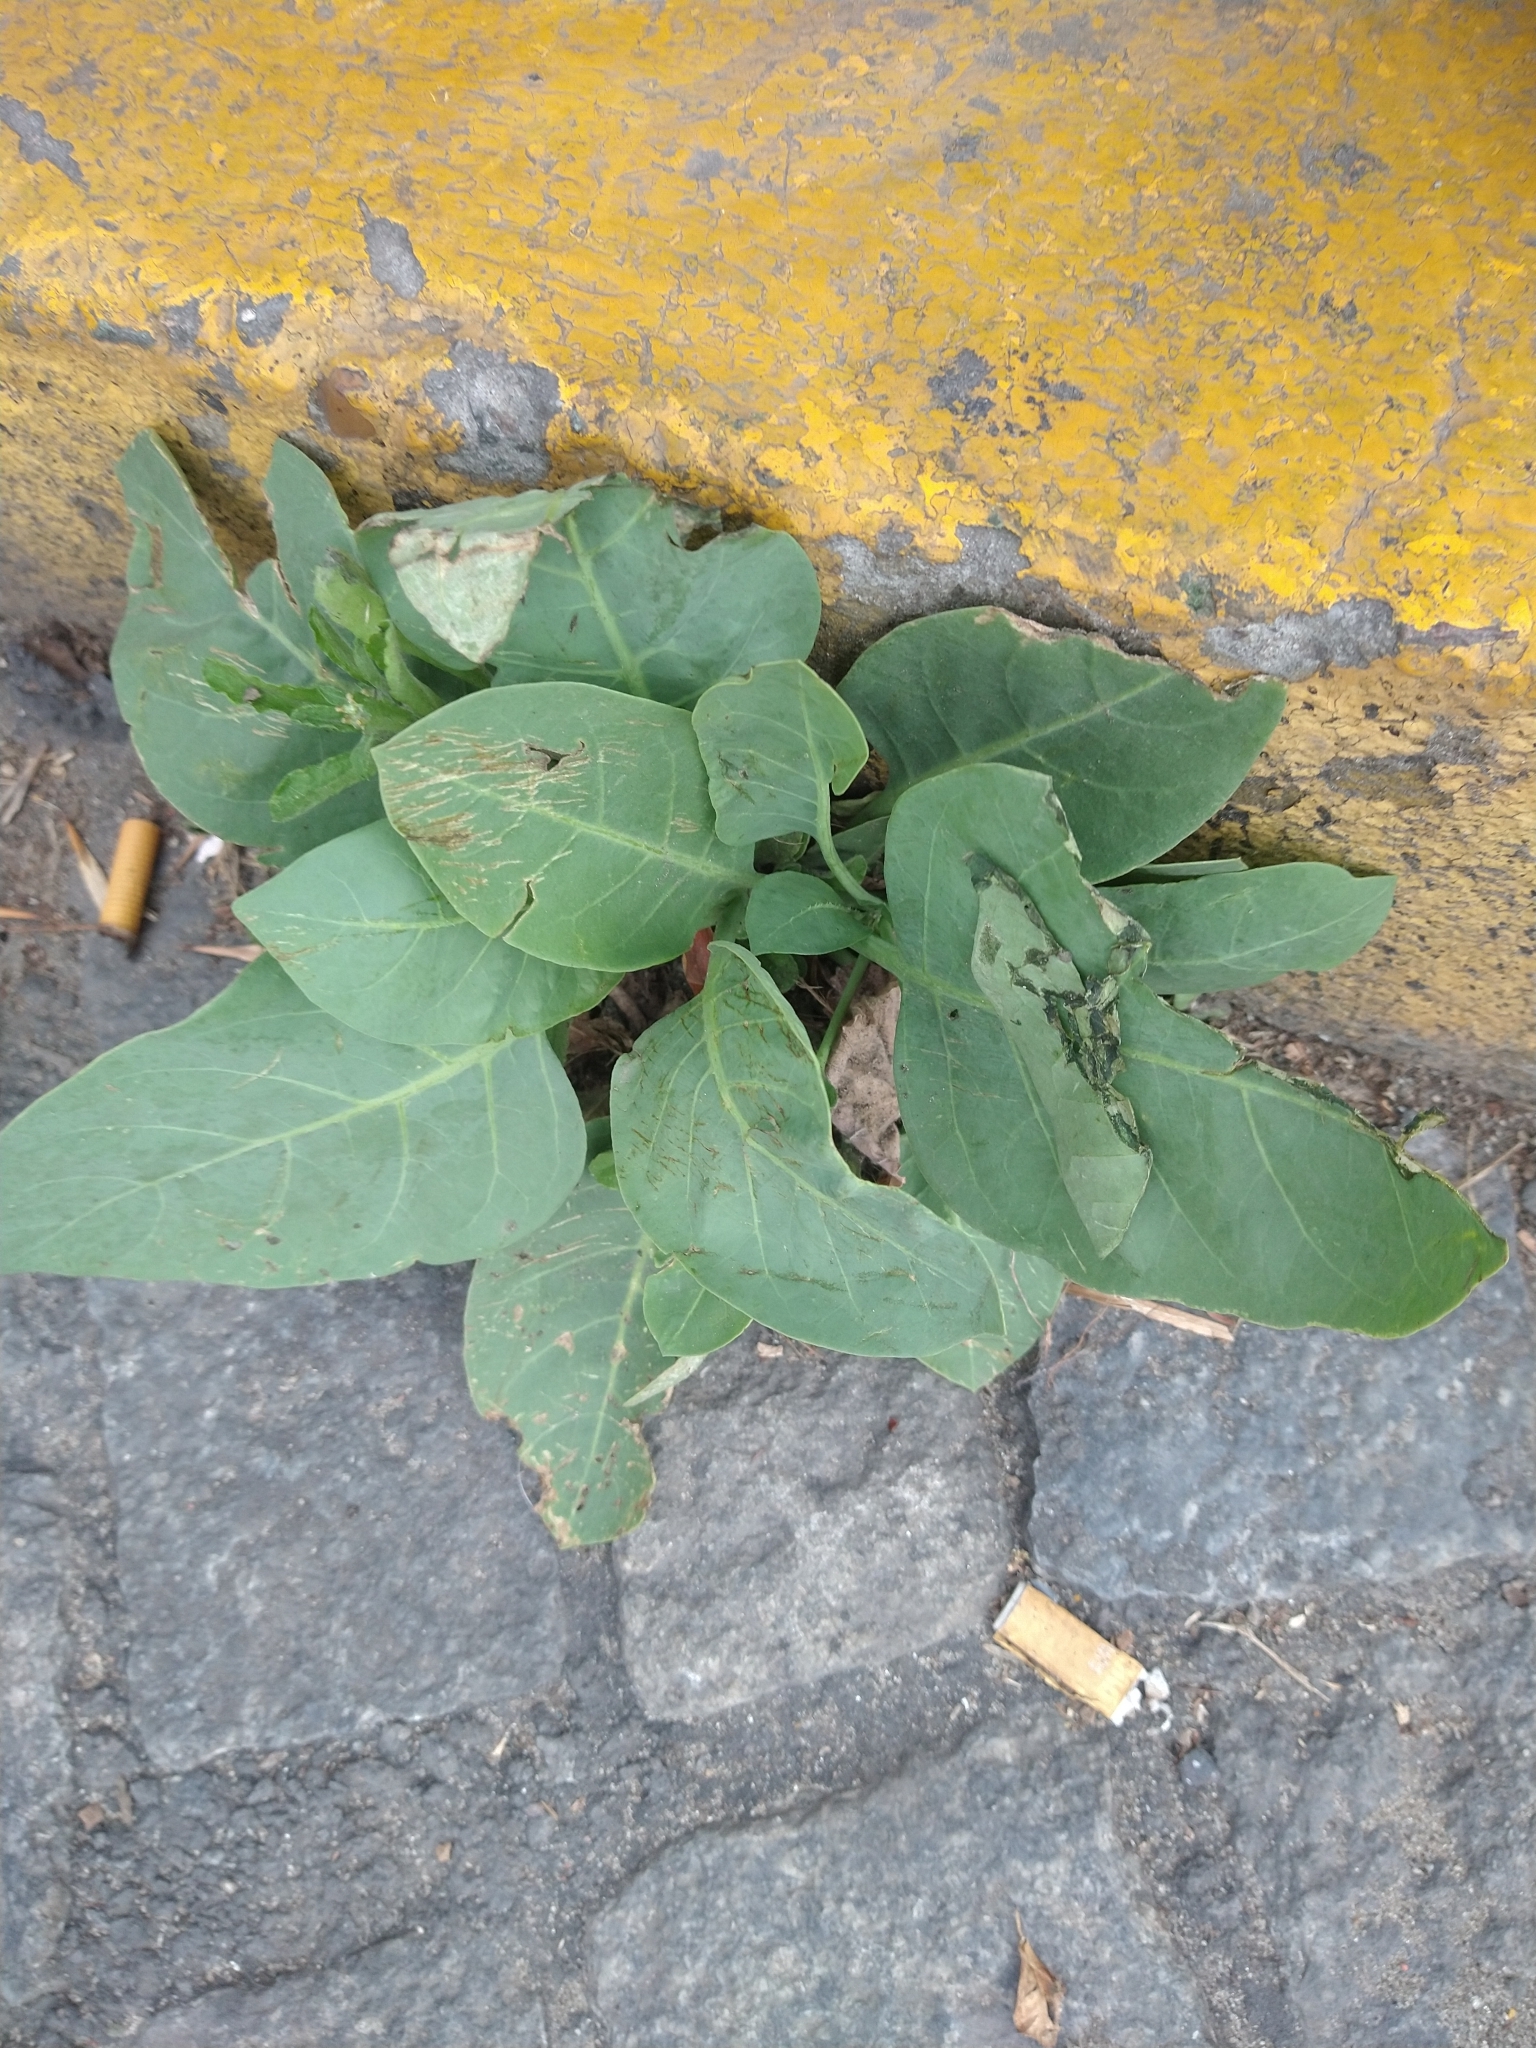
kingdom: Plantae
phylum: Tracheophyta
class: Magnoliopsida
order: Solanales
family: Solanaceae
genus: Nicotiana
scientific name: Nicotiana glauca
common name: Tree tobacco
